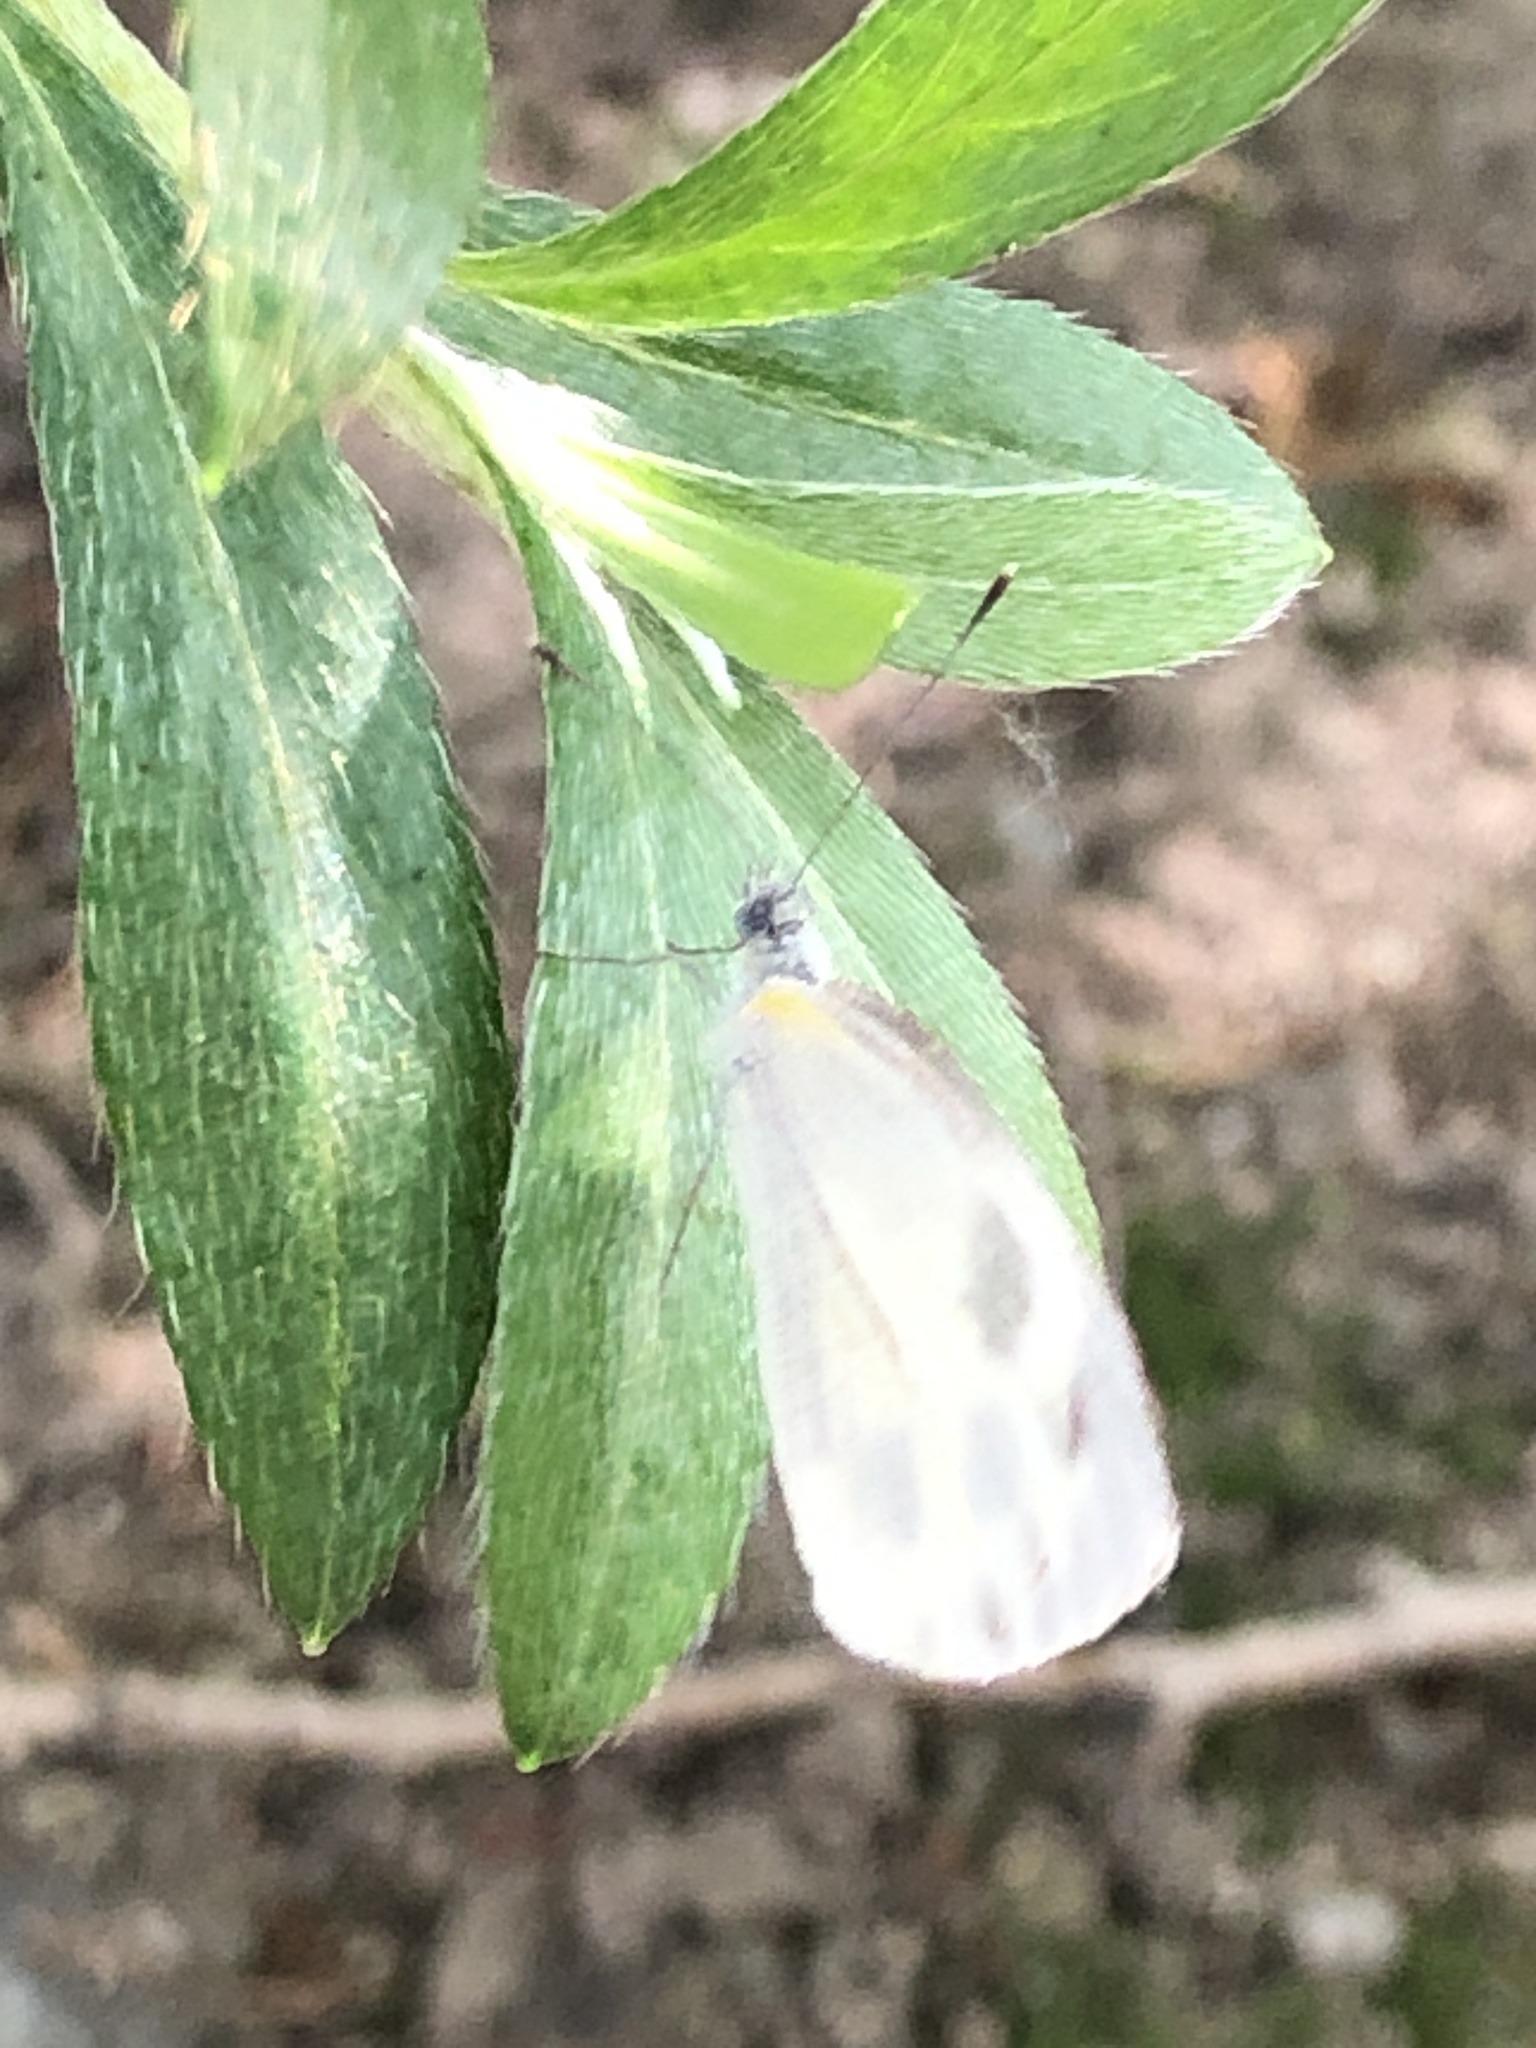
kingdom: Animalia
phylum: Arthropoda
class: Insecta
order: Lepidoptera
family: Pieridae
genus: Pieris
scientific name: Pieris canidia
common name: Indian cabbage white
